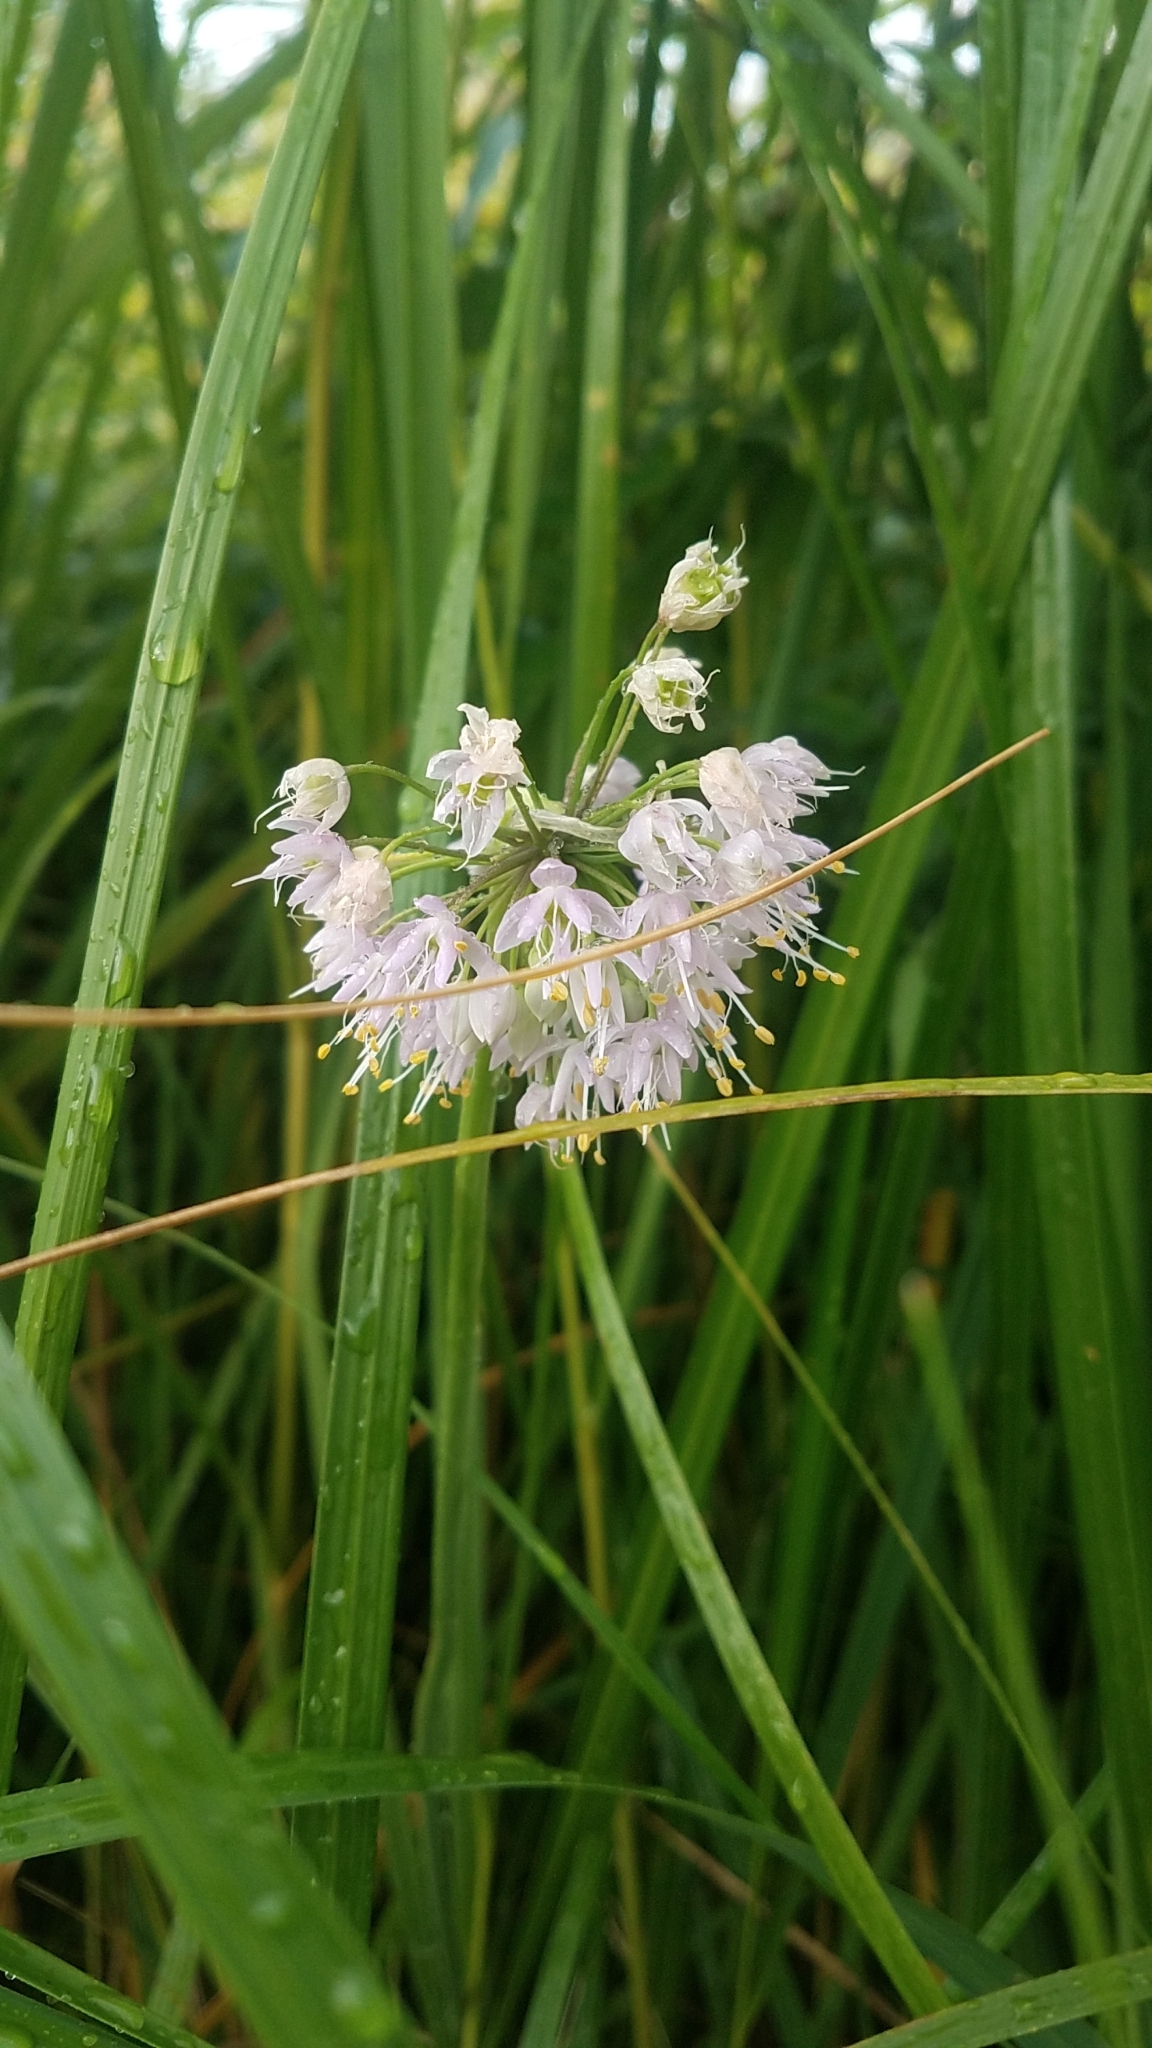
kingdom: Plantae
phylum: Tracheophyta
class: Liliopsida
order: Asparagales
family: Amaryllidaceae
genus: Allium
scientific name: Allium cernuum
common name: Nodding onion
